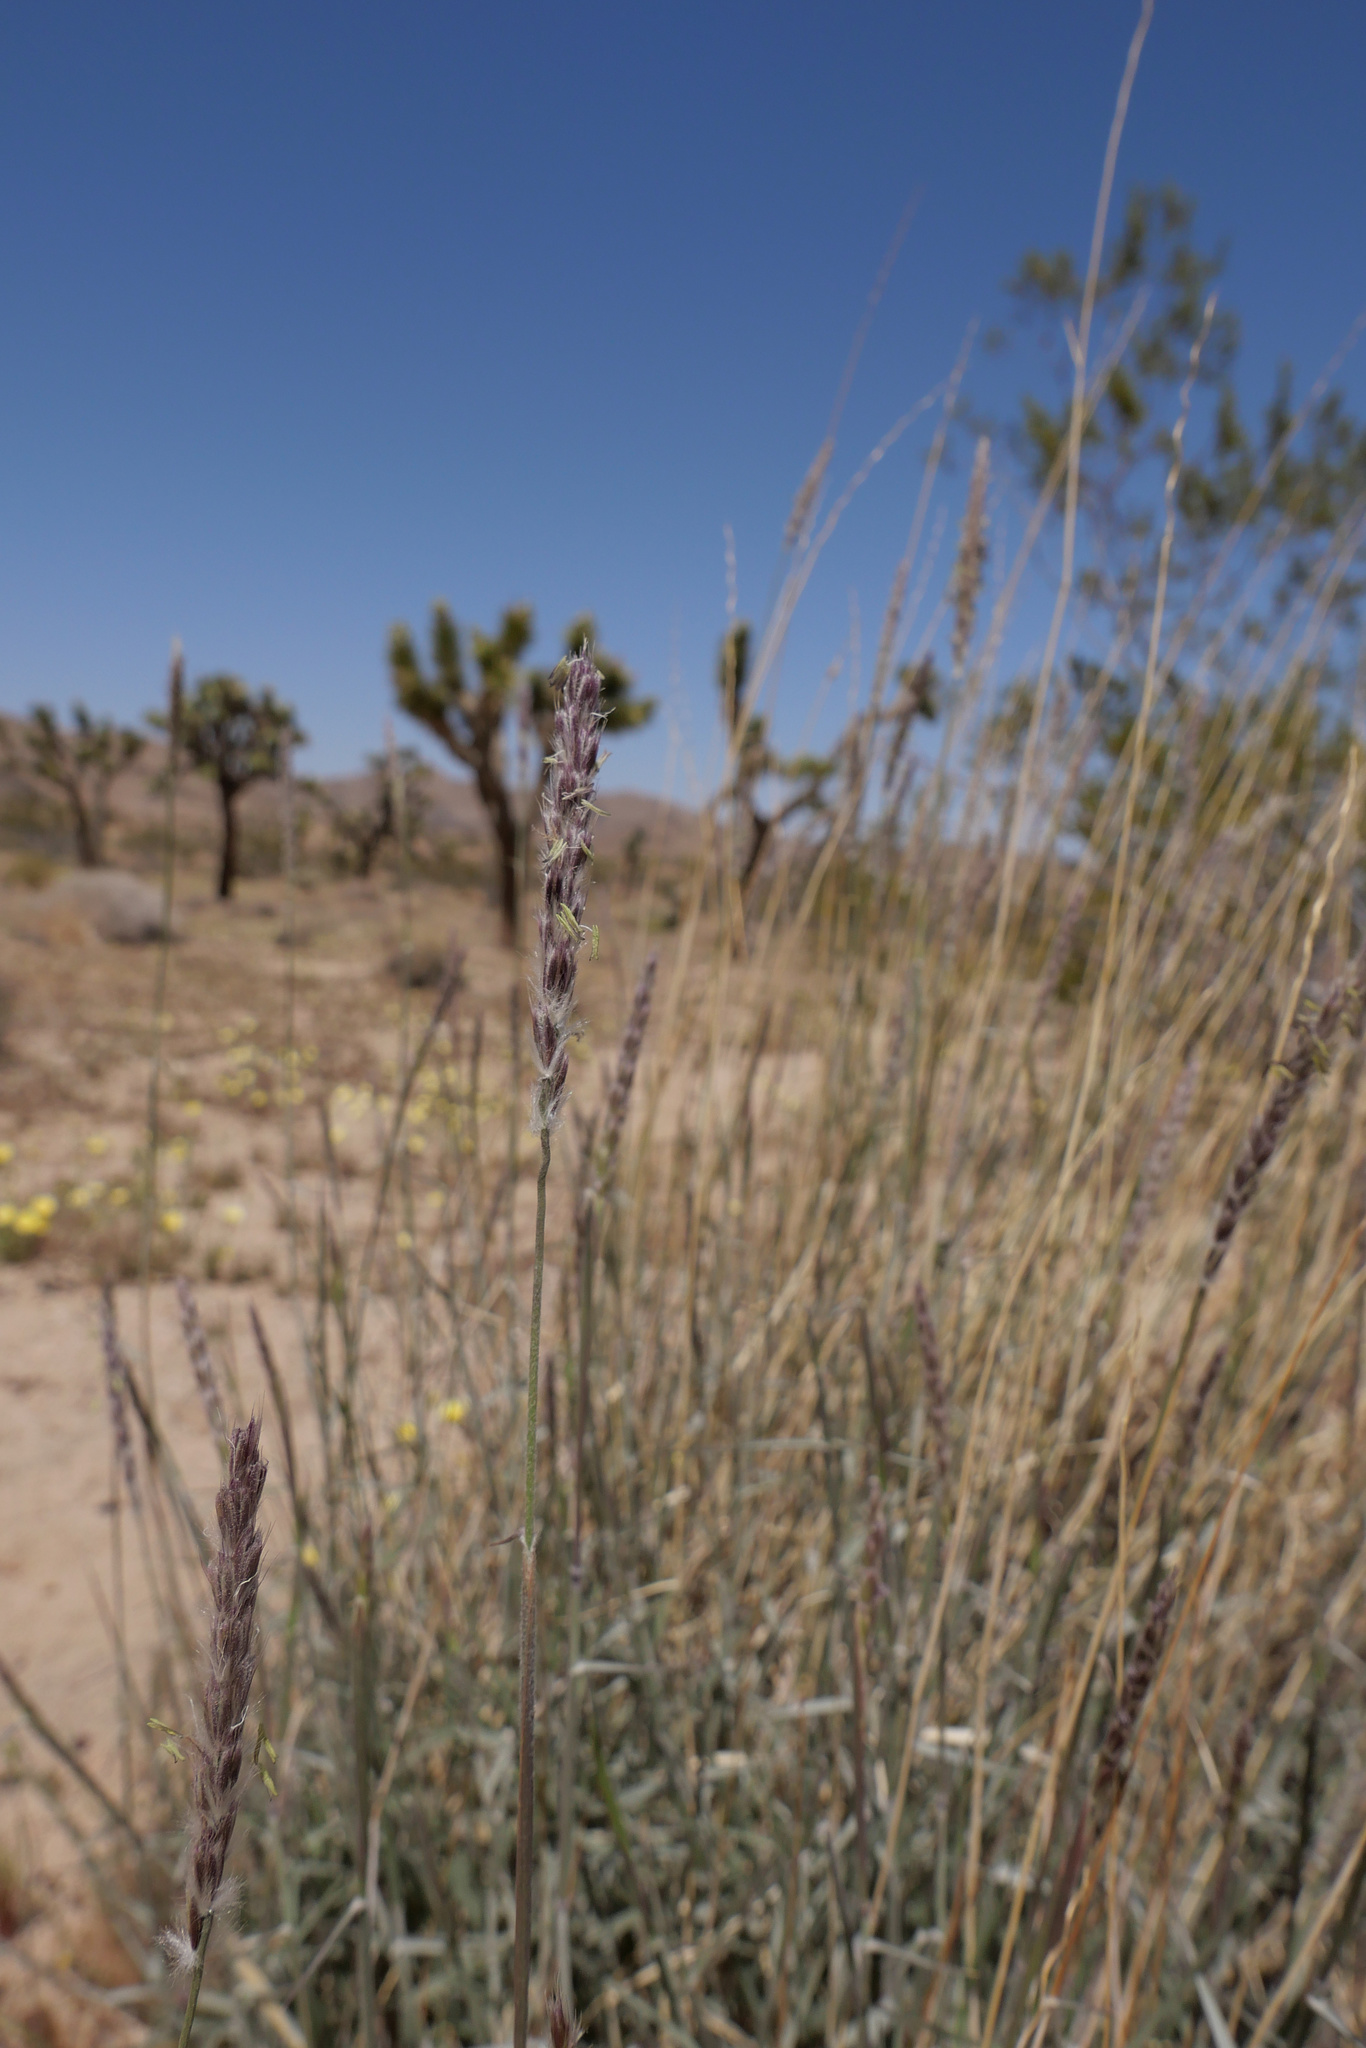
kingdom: Plantae
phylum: Tracheophyta
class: Liliopsida
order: Poales
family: Poaceae
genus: Hilaria
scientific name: Hilaria rigida
